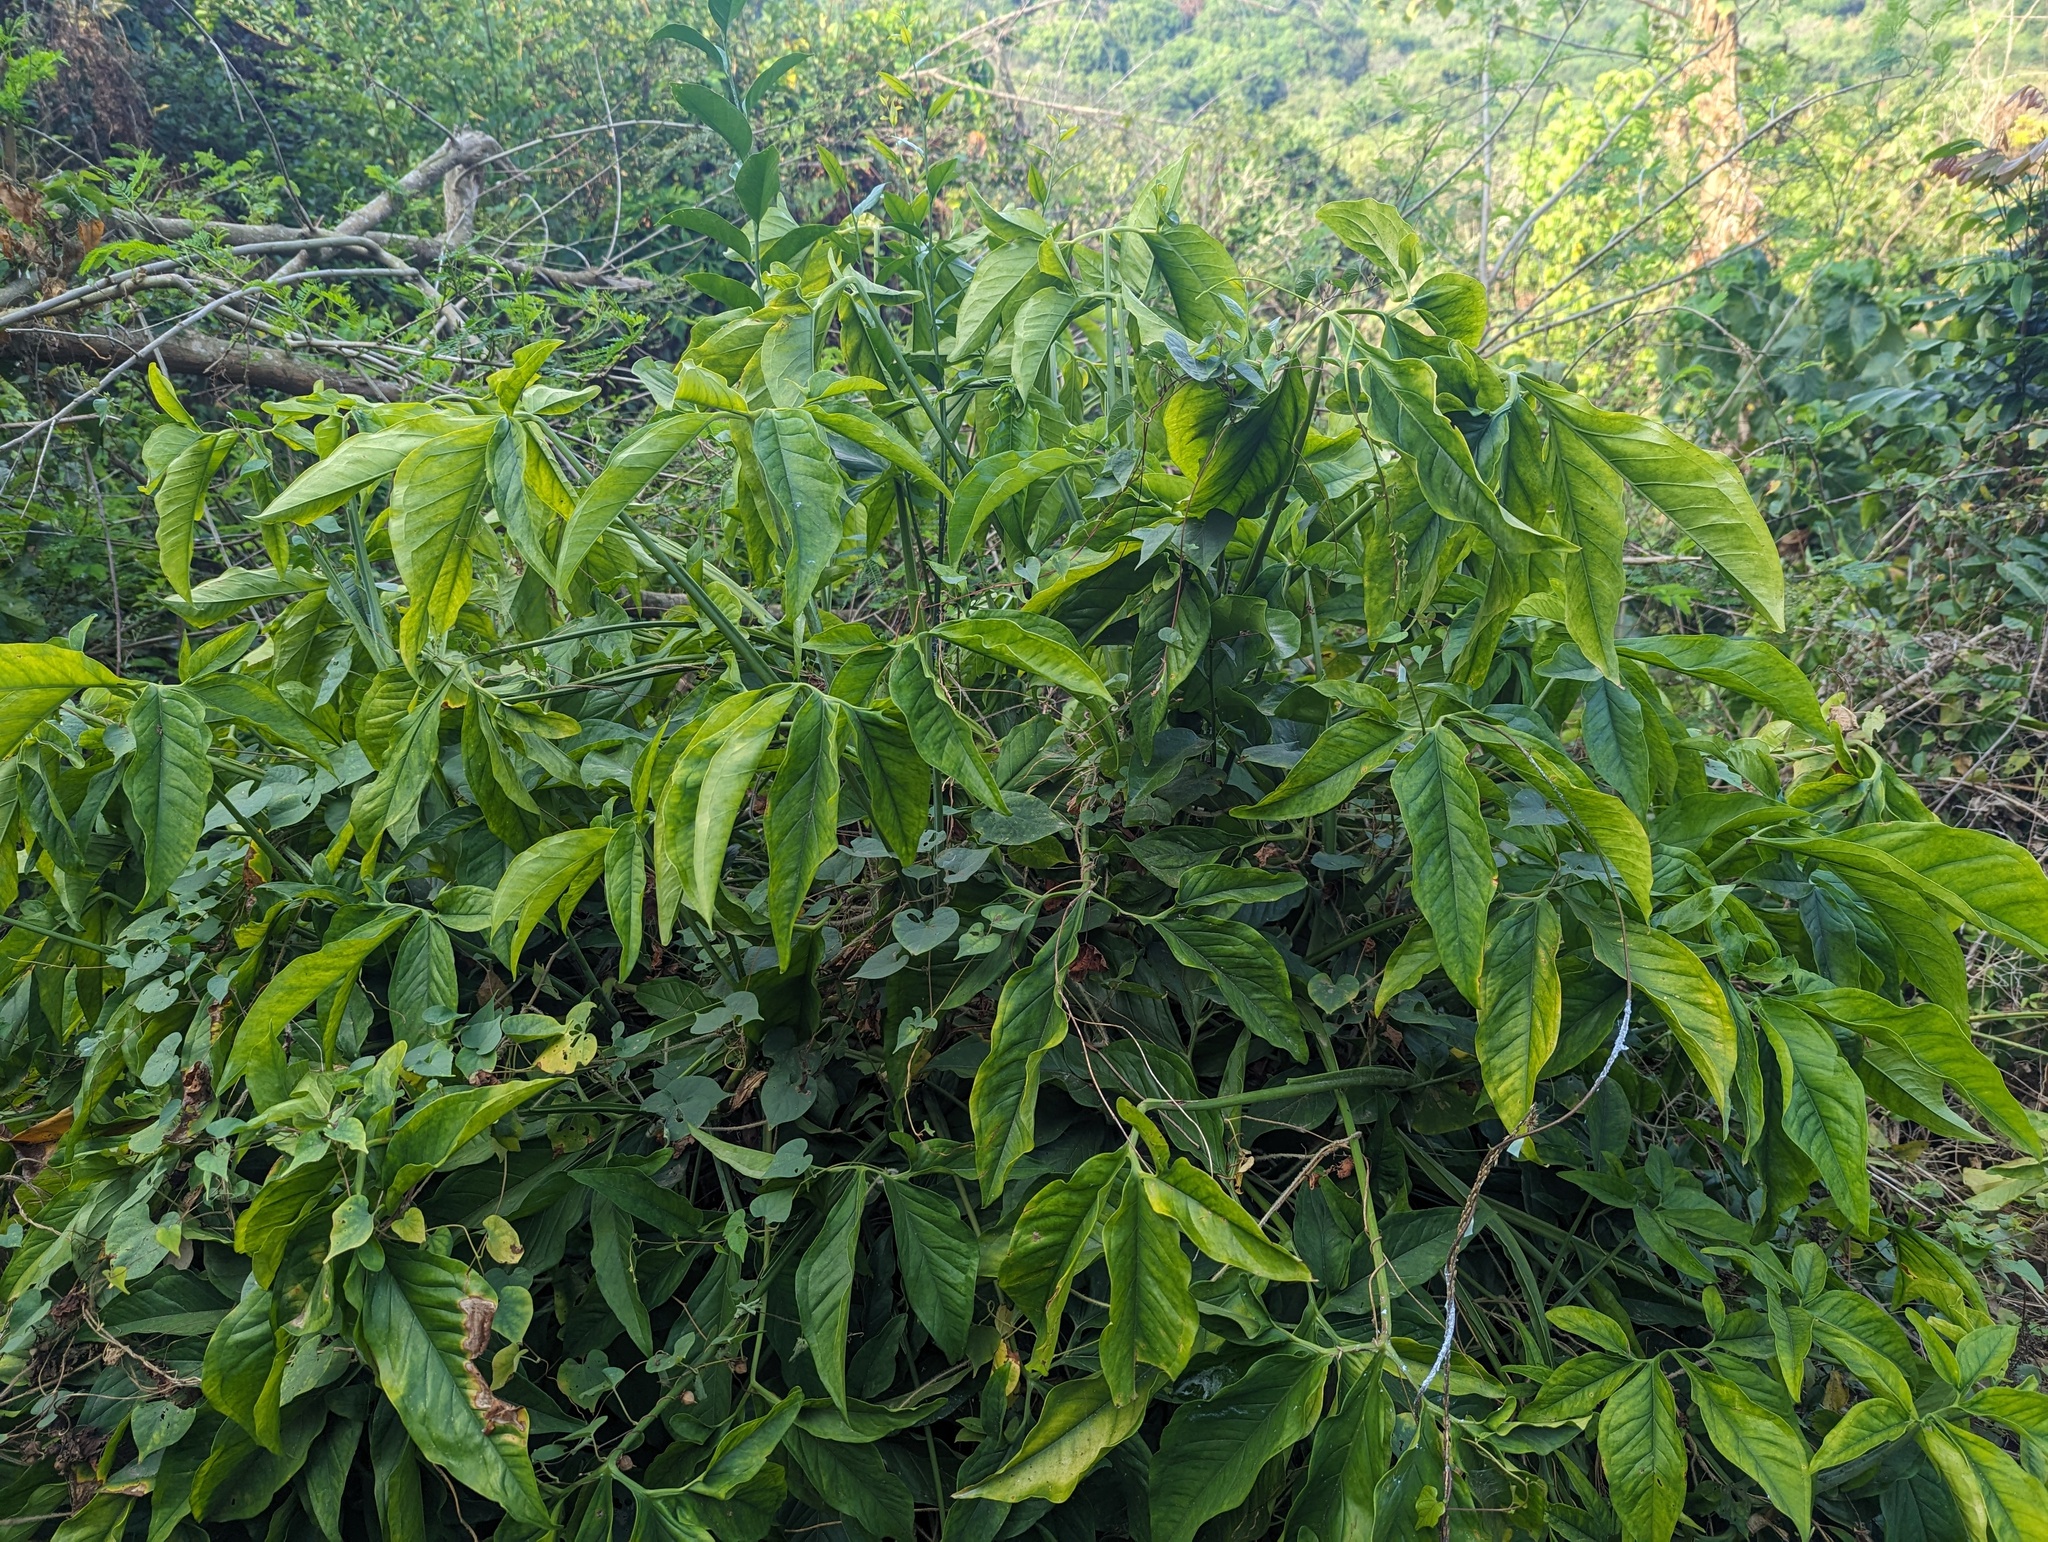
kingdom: Plantae
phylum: Tracheophyta
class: Liliopsida
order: Alismatales
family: Araceae
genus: Syngonium
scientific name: Syngonium angustatum
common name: Fivefingers
